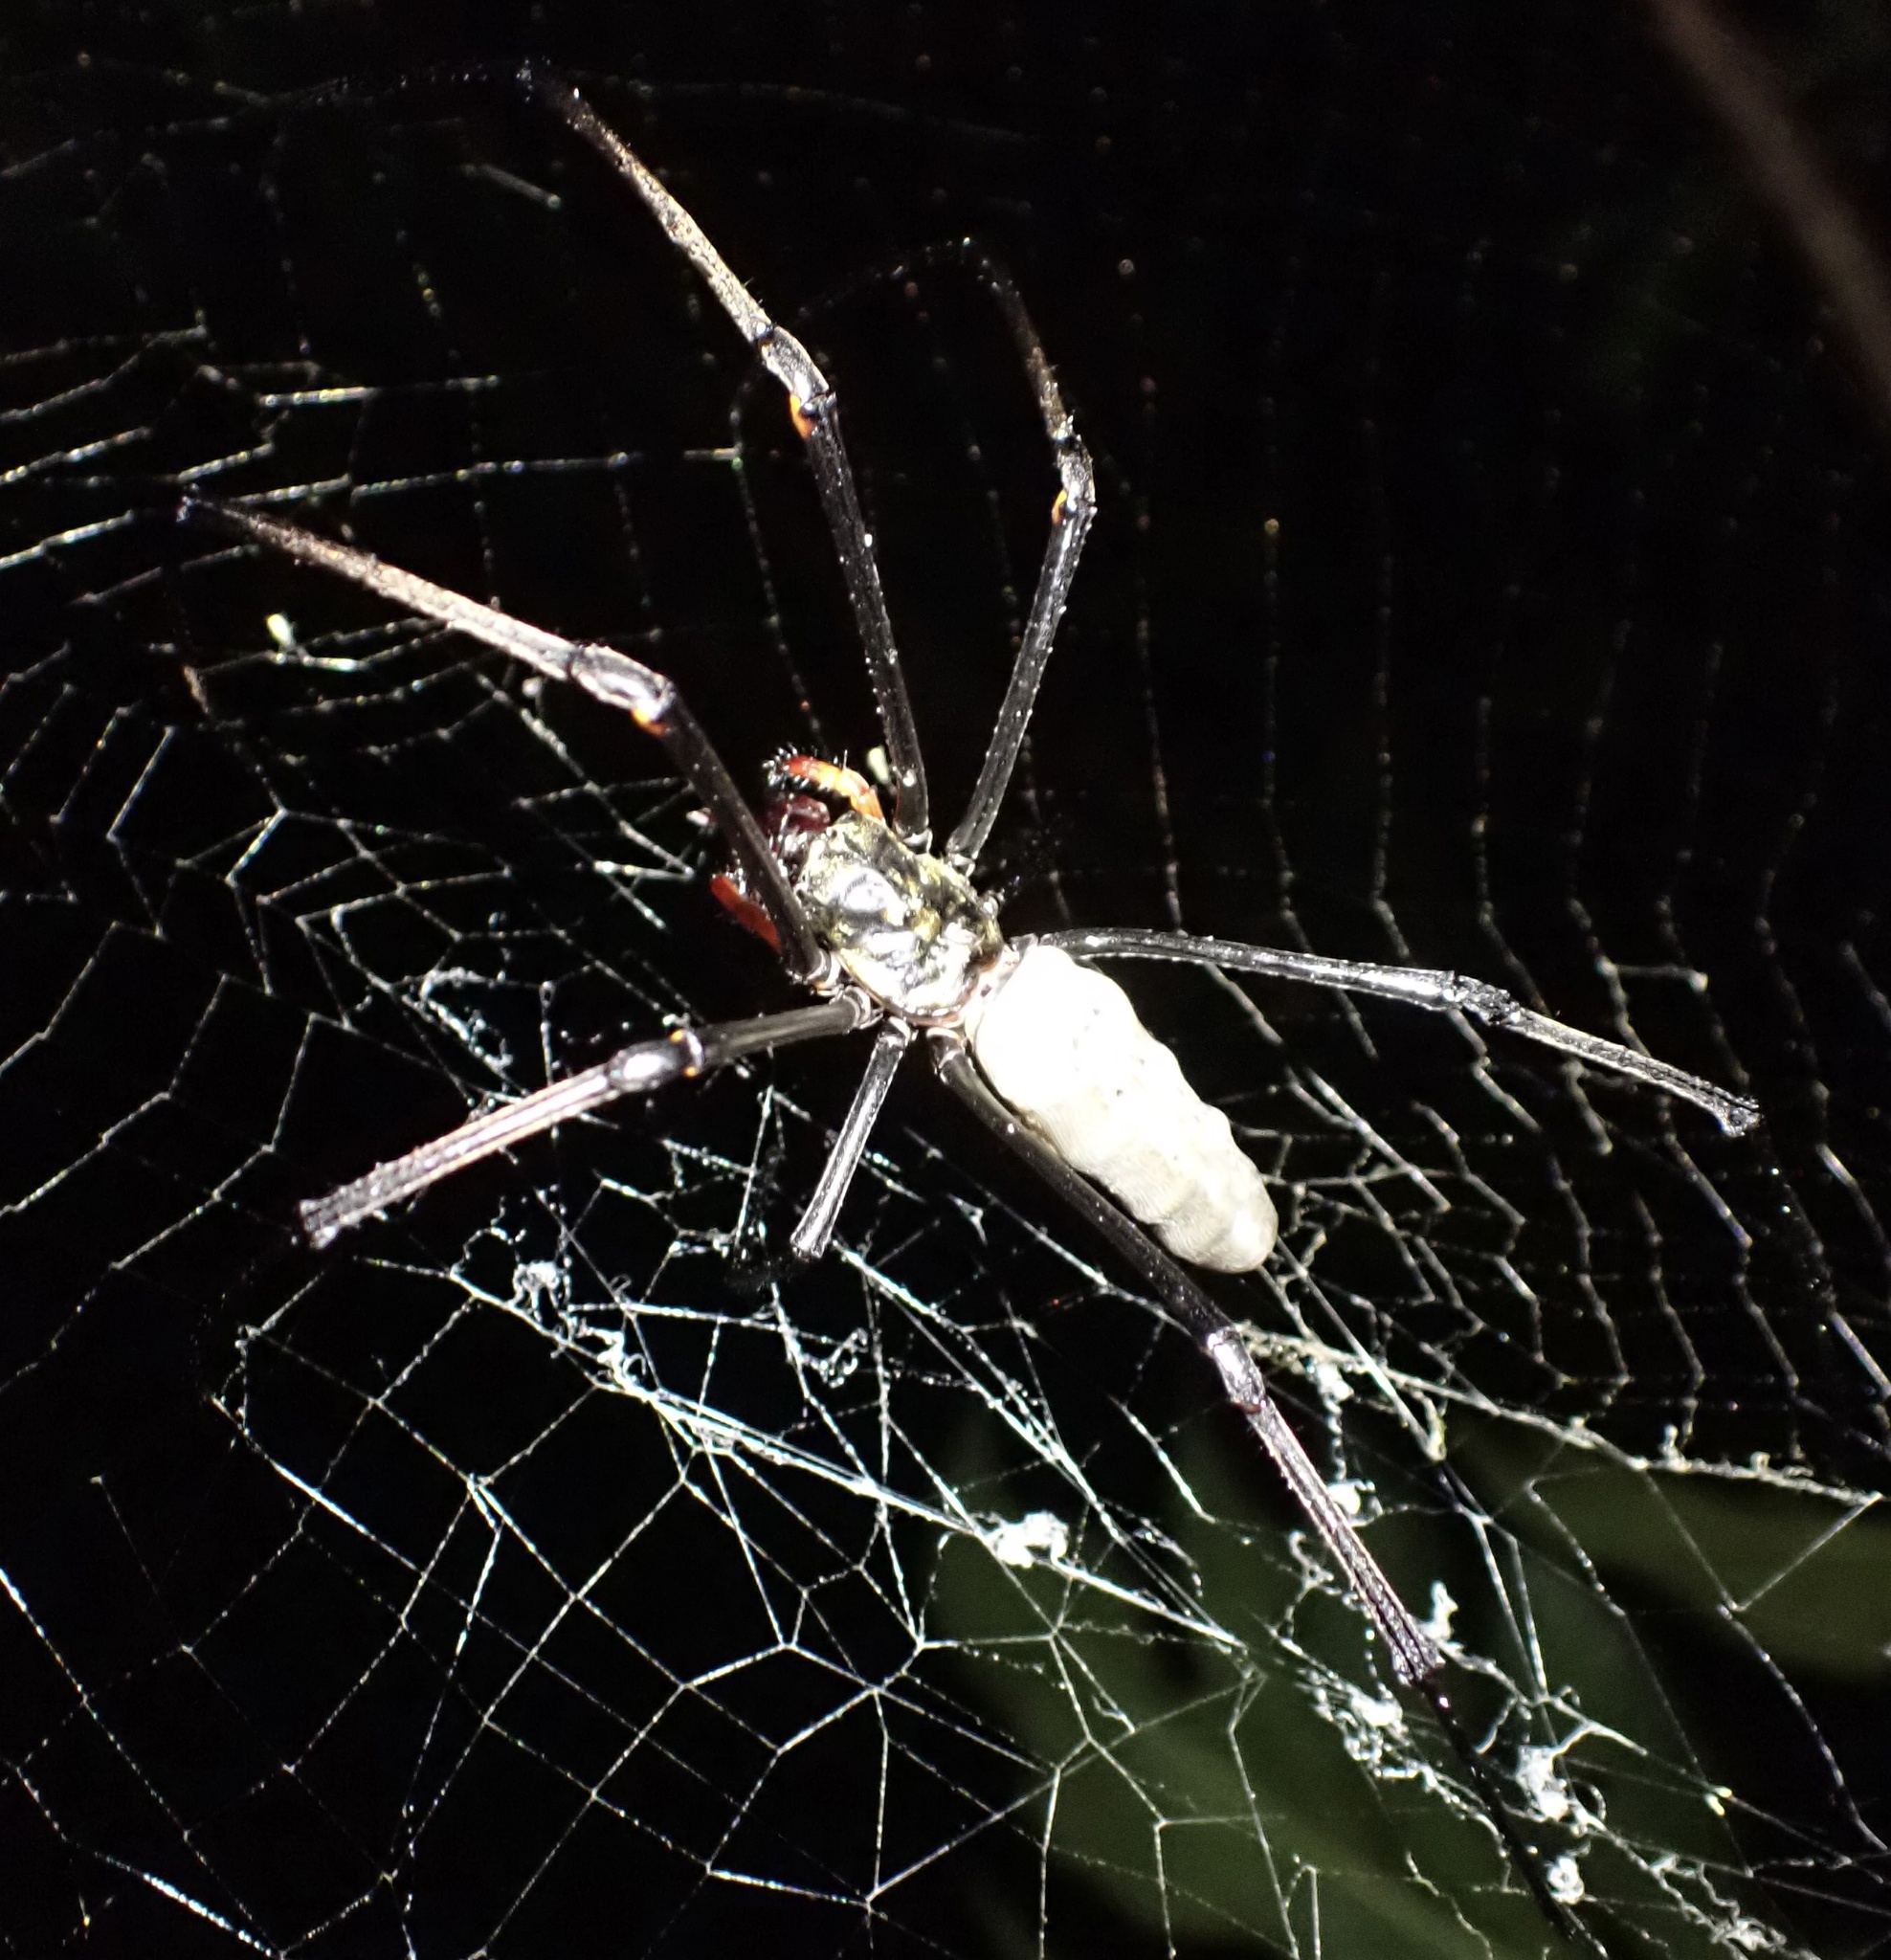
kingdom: Animalia
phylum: Arthropoda
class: Arachnida
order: Araneae
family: Araneidae
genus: Nephila
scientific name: Nephila pilipes
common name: Giant golden orb weaver
